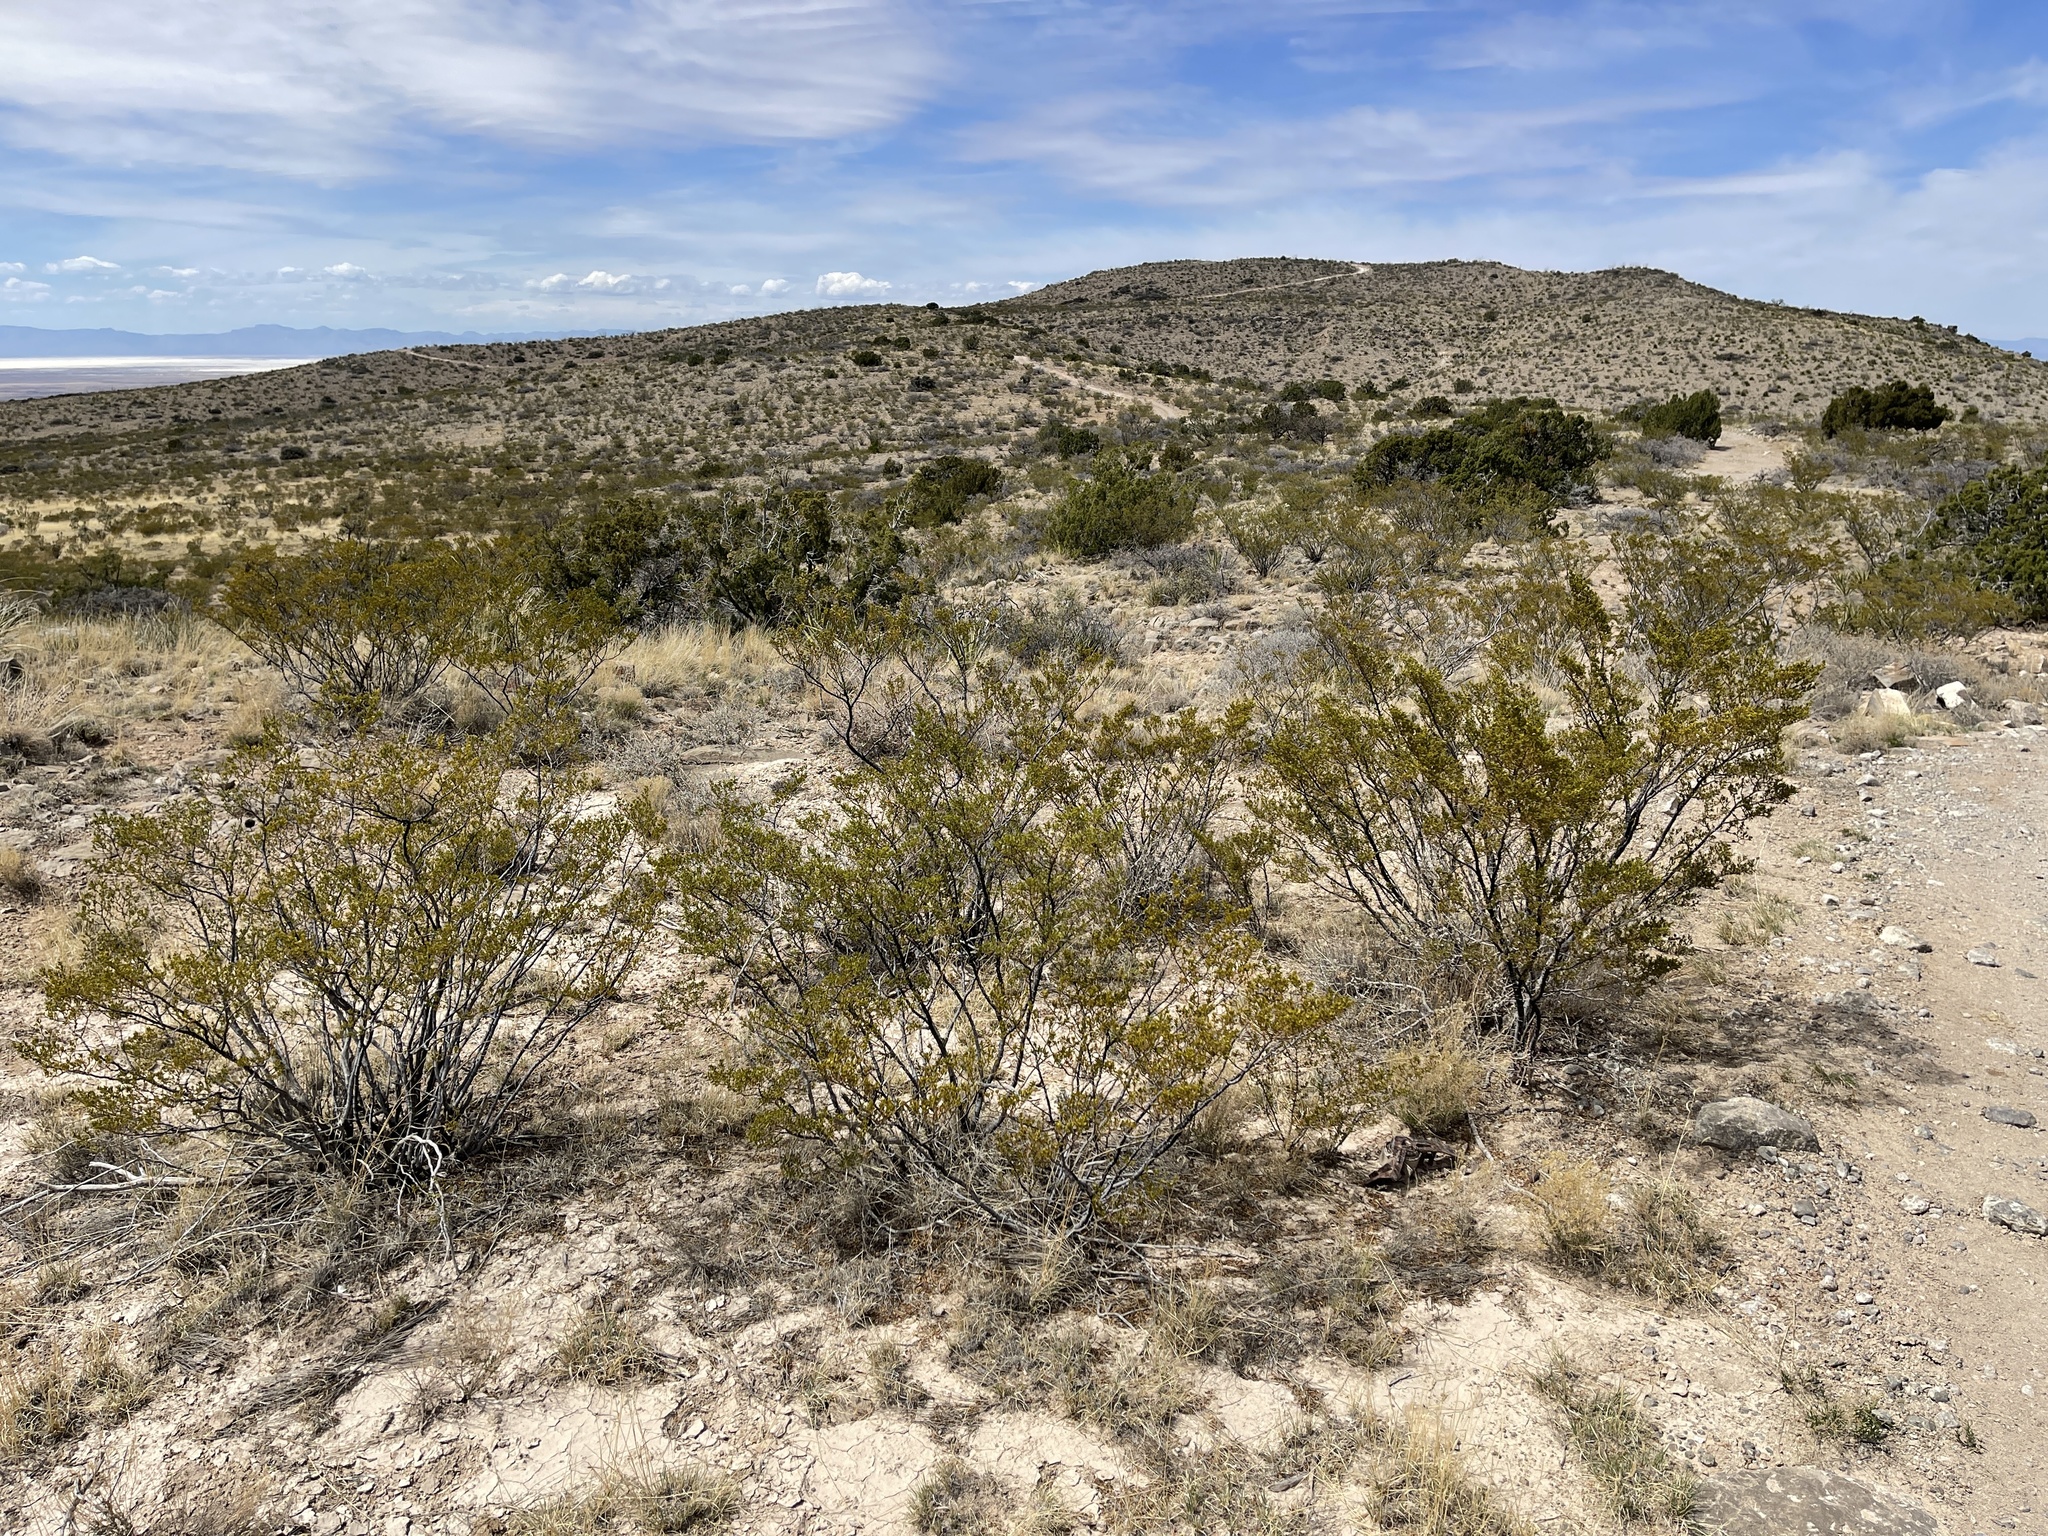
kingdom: Plantae
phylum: Tracheophyta
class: Magnoliopsida
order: Zygophyllales
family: Zygophyllaceae
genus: Larrea
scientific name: Larrea tridentata
